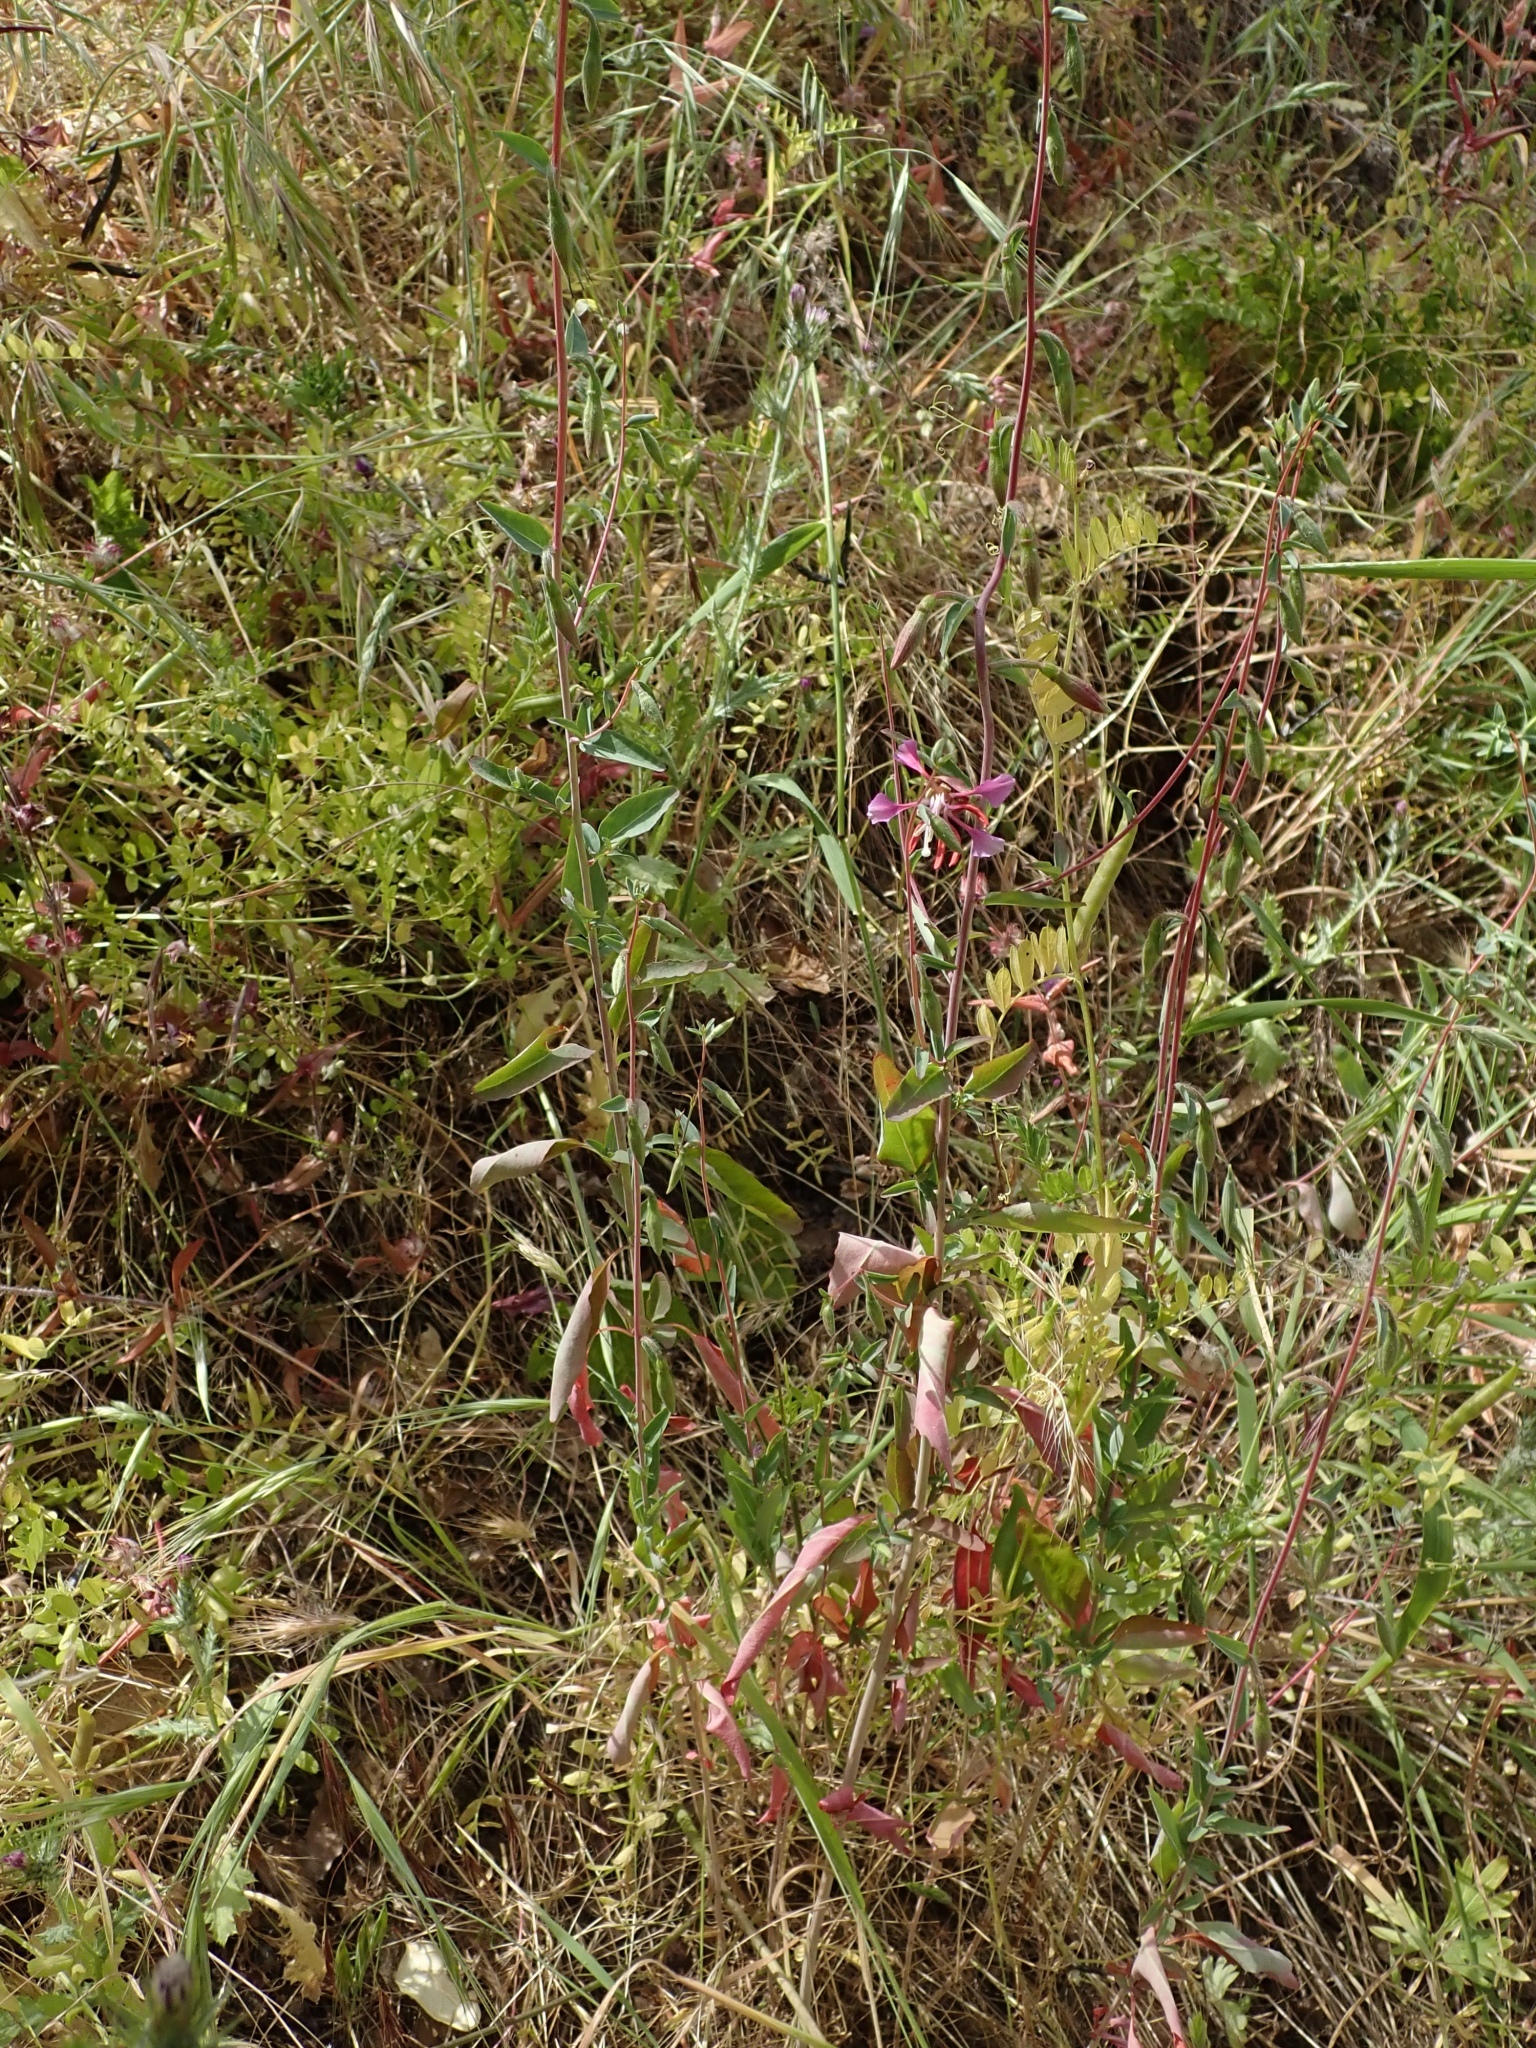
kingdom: Plantae
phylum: Tracheophyta
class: Magnoliopsida
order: Myrtales
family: Onagraceae
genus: Clarkia
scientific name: Clarkia unguiculata
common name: Clarkia
